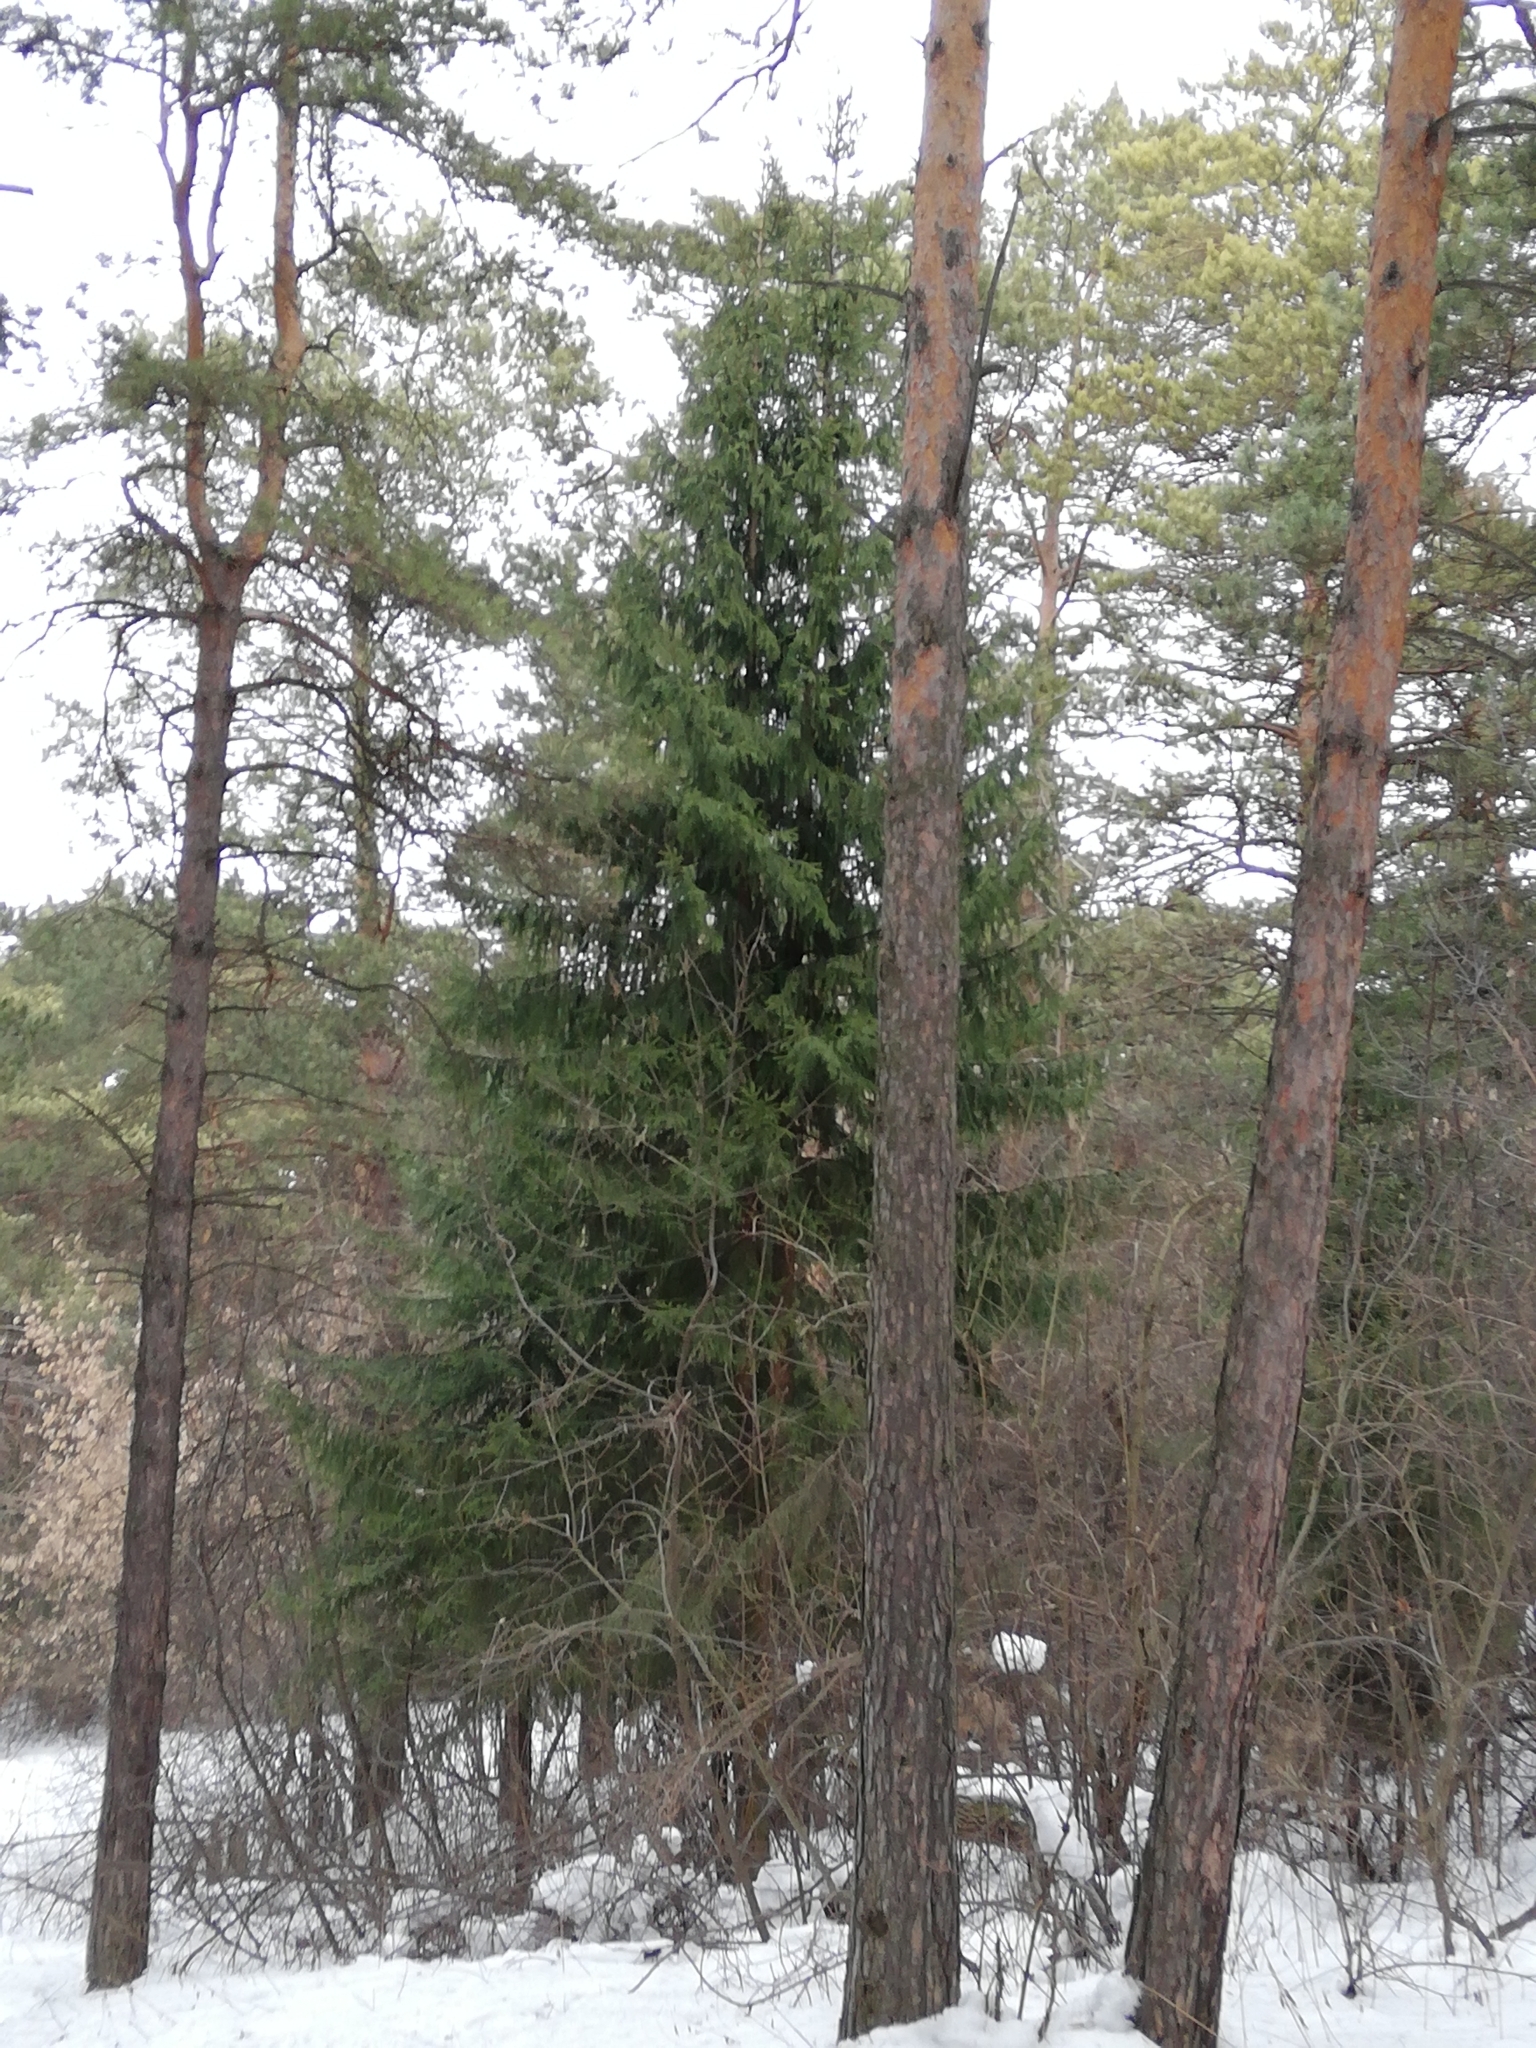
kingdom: Plantae
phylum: Tracheophyta
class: Pinopsida
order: Pinales
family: Pinaceae
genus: Picea
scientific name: Picea obovata
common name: Siberian spruce
